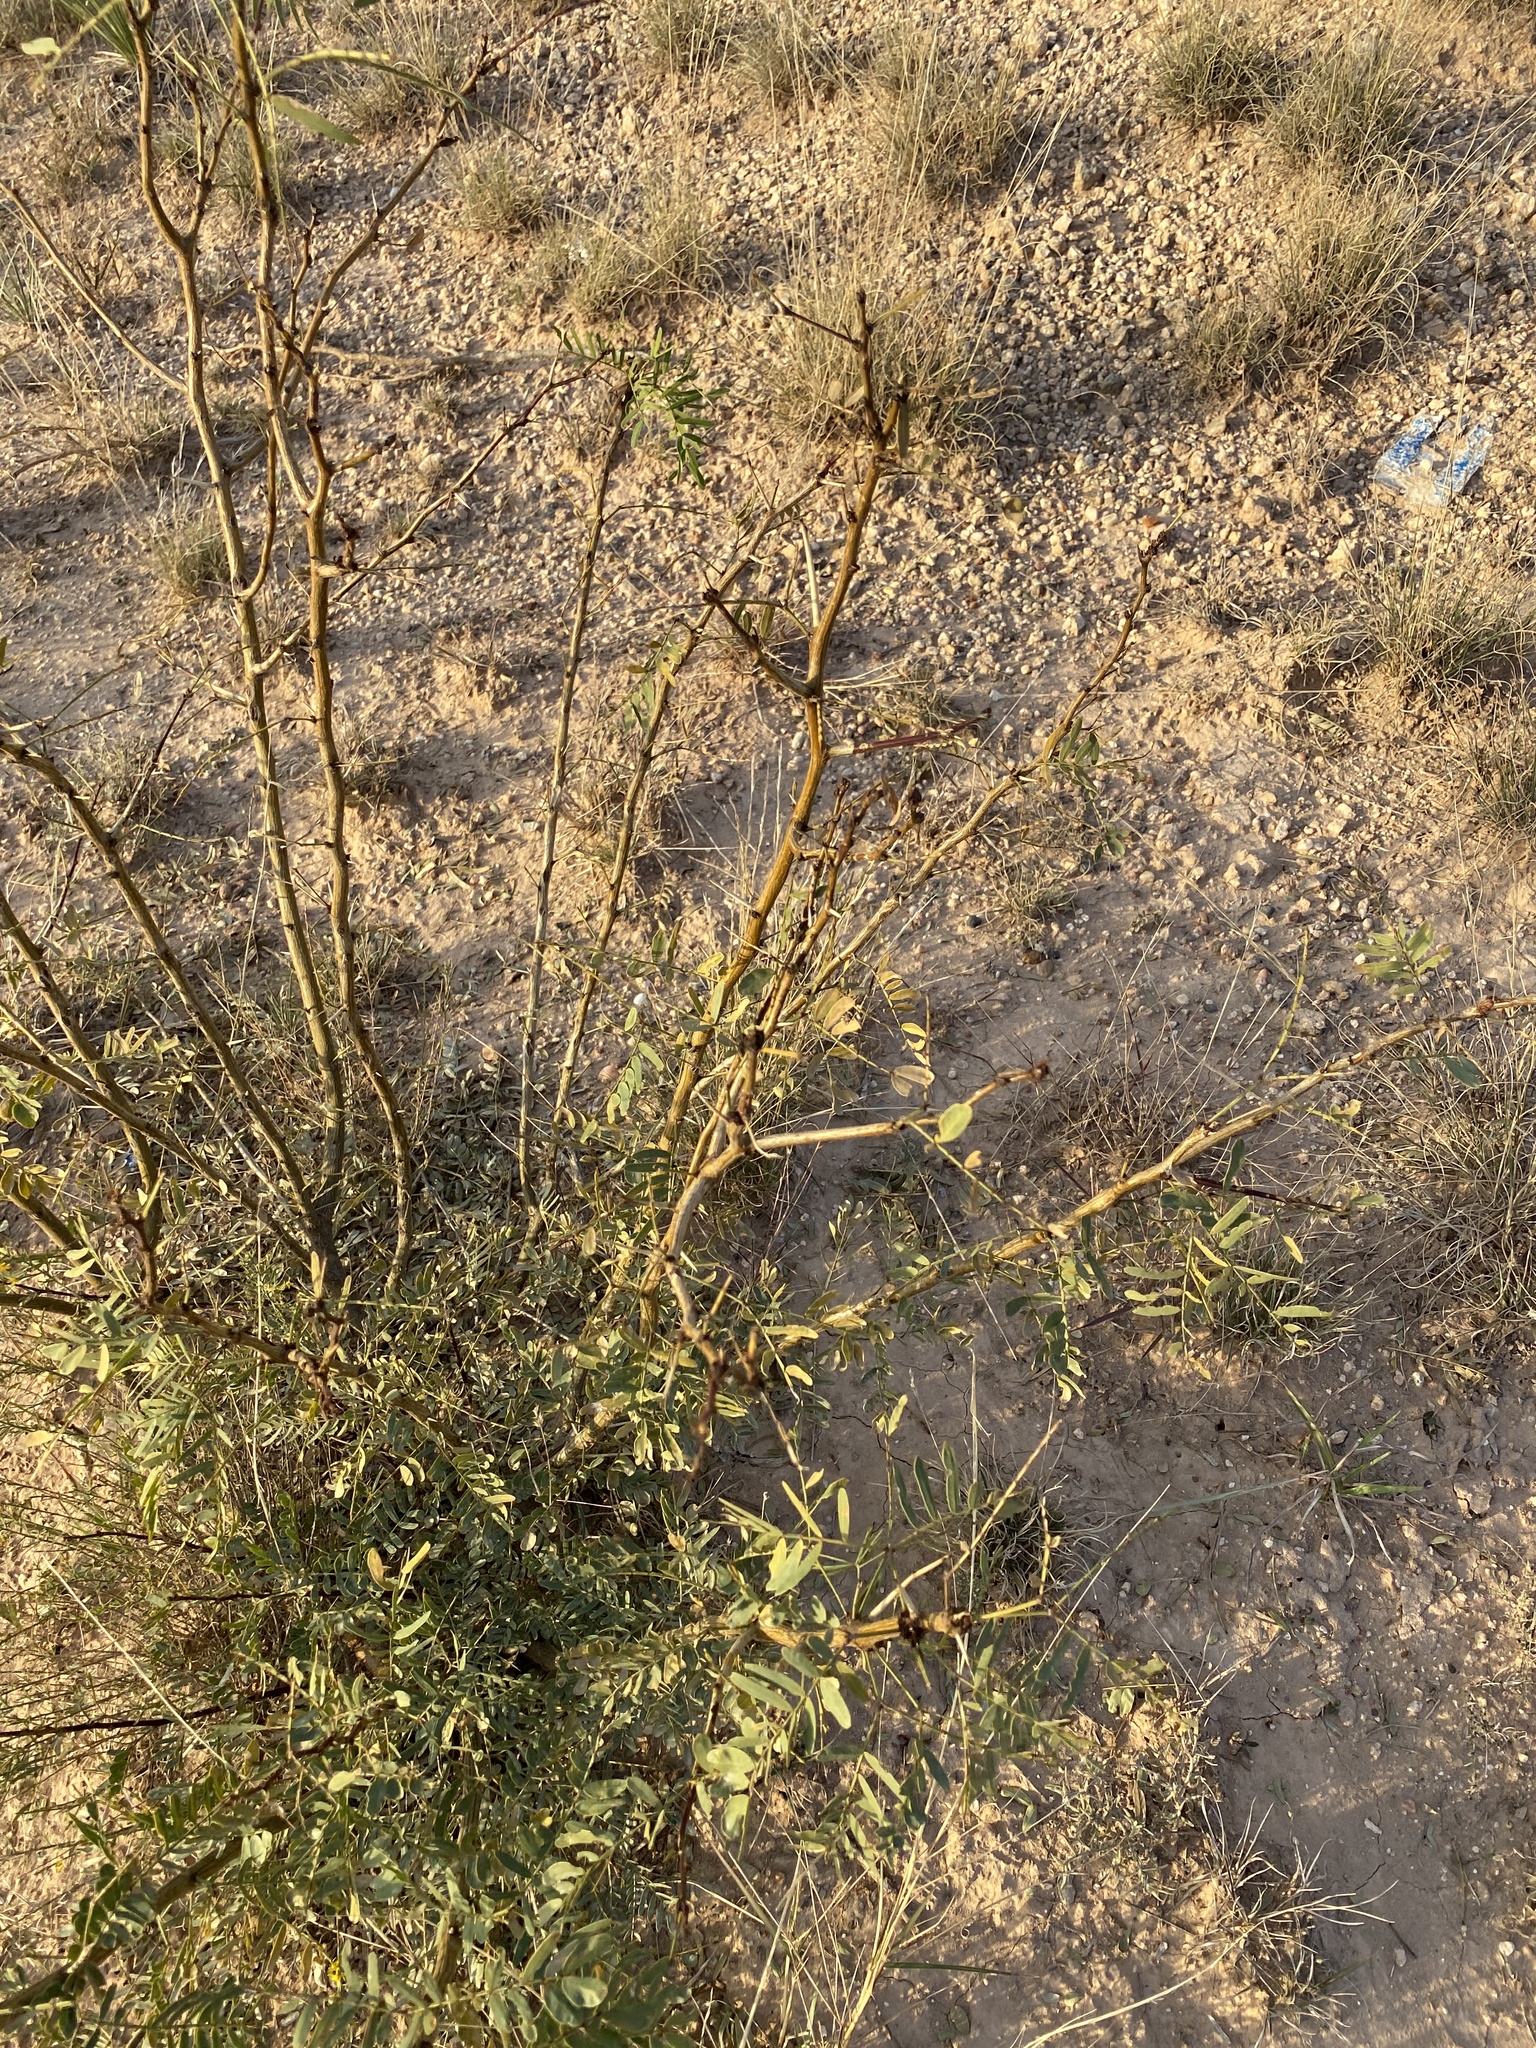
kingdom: Plantae
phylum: Tracheophyta
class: Magnoliopsida
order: Fabales
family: Fabaceae
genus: Prosopis
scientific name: Prosopis glandulosa
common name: Honey mesquite
